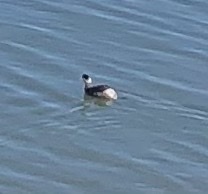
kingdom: Animalia
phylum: Chordata
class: Aves
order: Podicipediformes
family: Podicipedidae
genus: Podiceps
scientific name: Podiceps auritus
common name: Horned grebe
